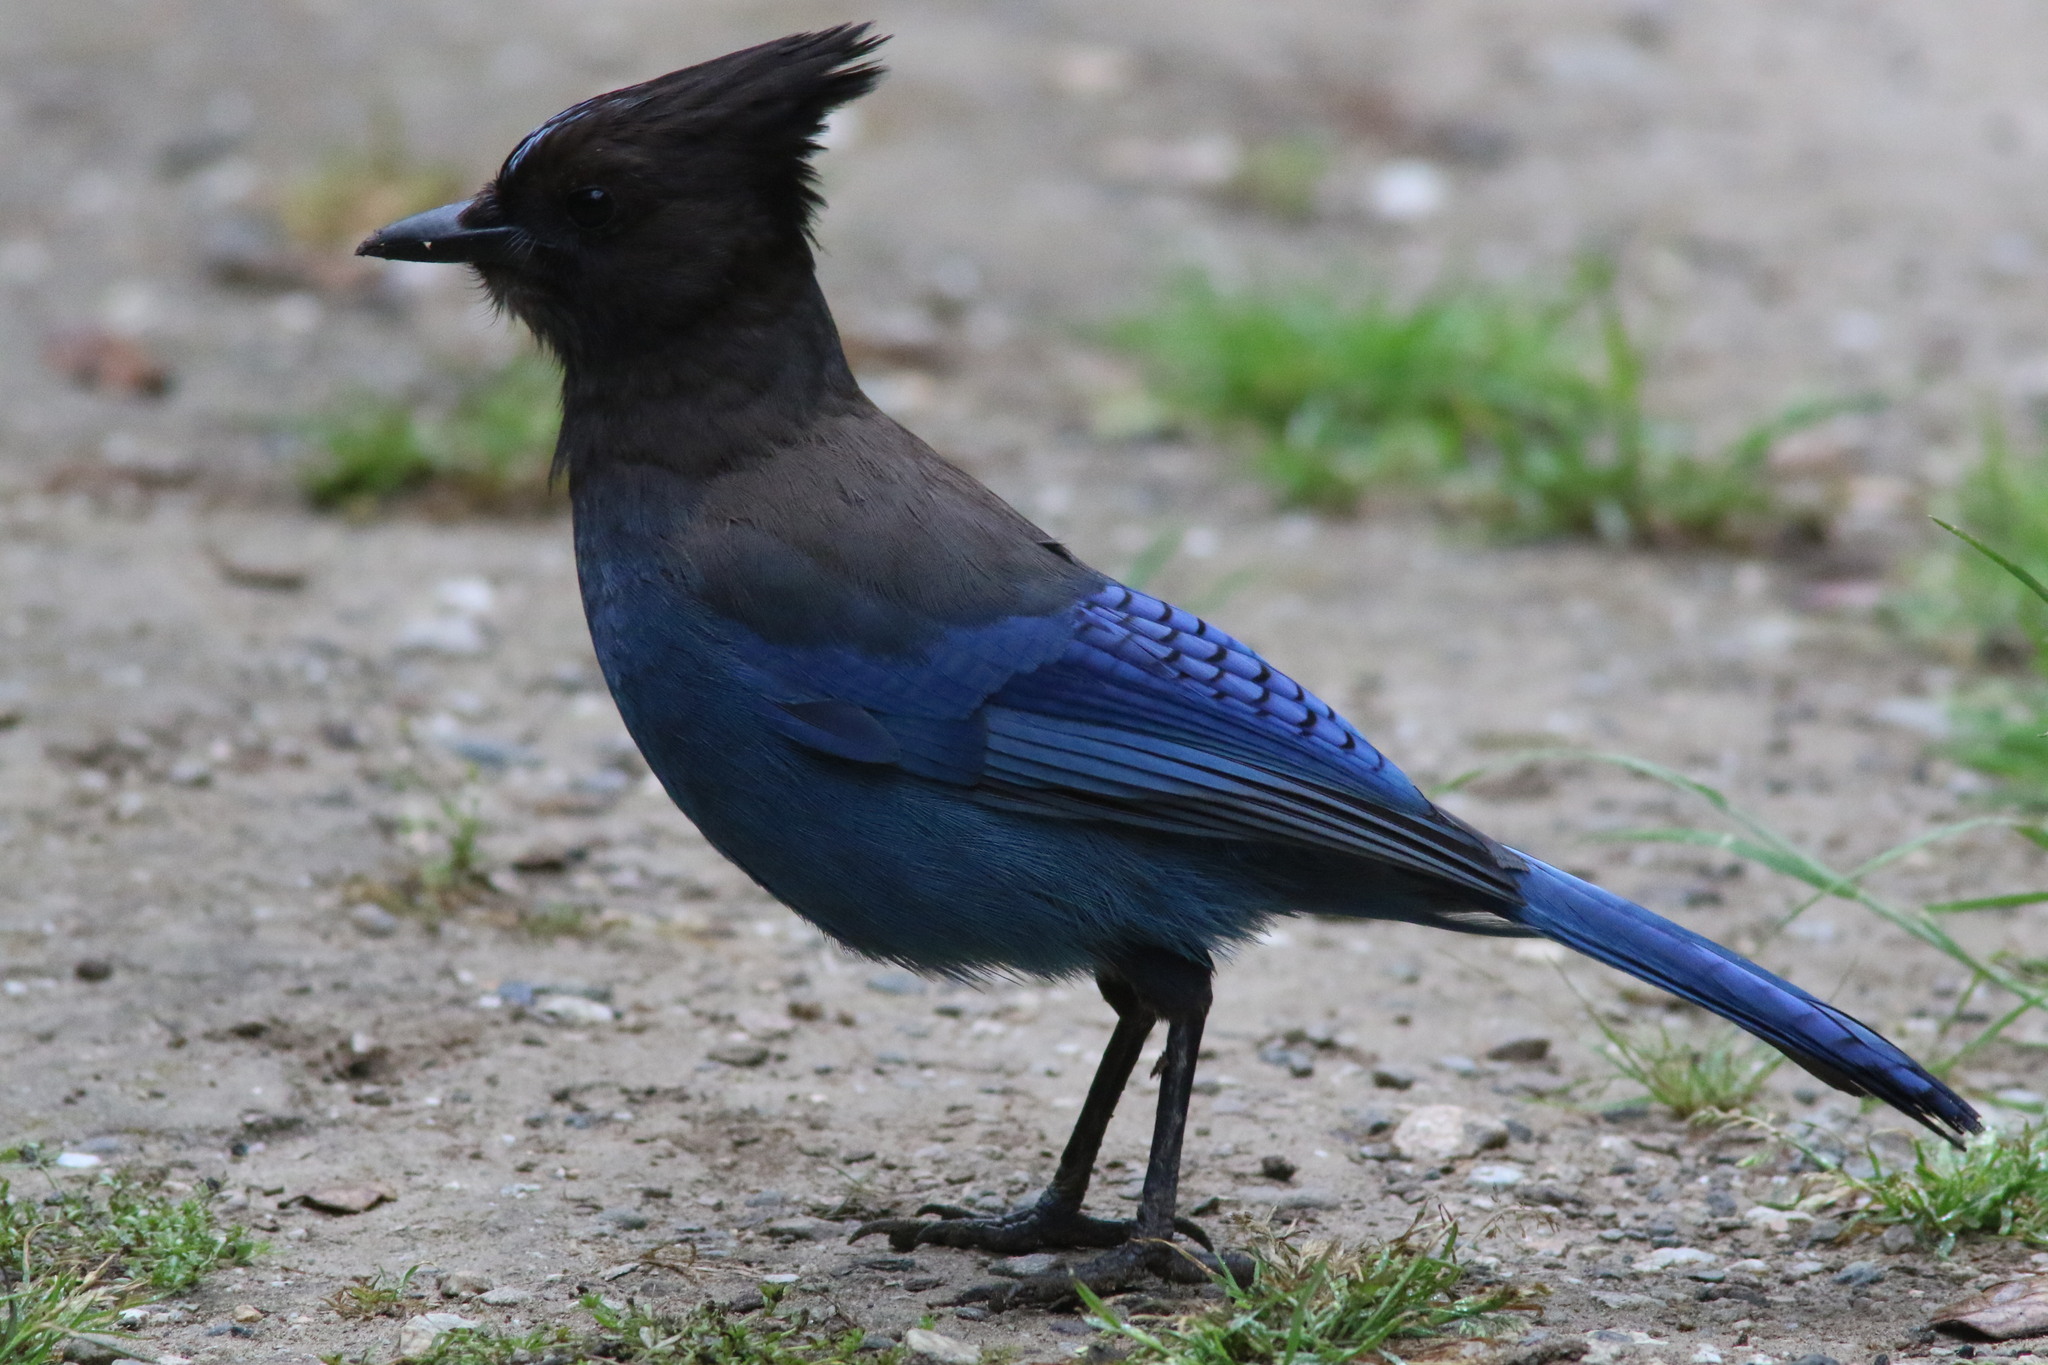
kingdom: Animalia
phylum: Chordata
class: Aves
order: Passeriformes
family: Corvidae
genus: Cyanocitta
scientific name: Cyanocitta stelleri
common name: Steller's jay
